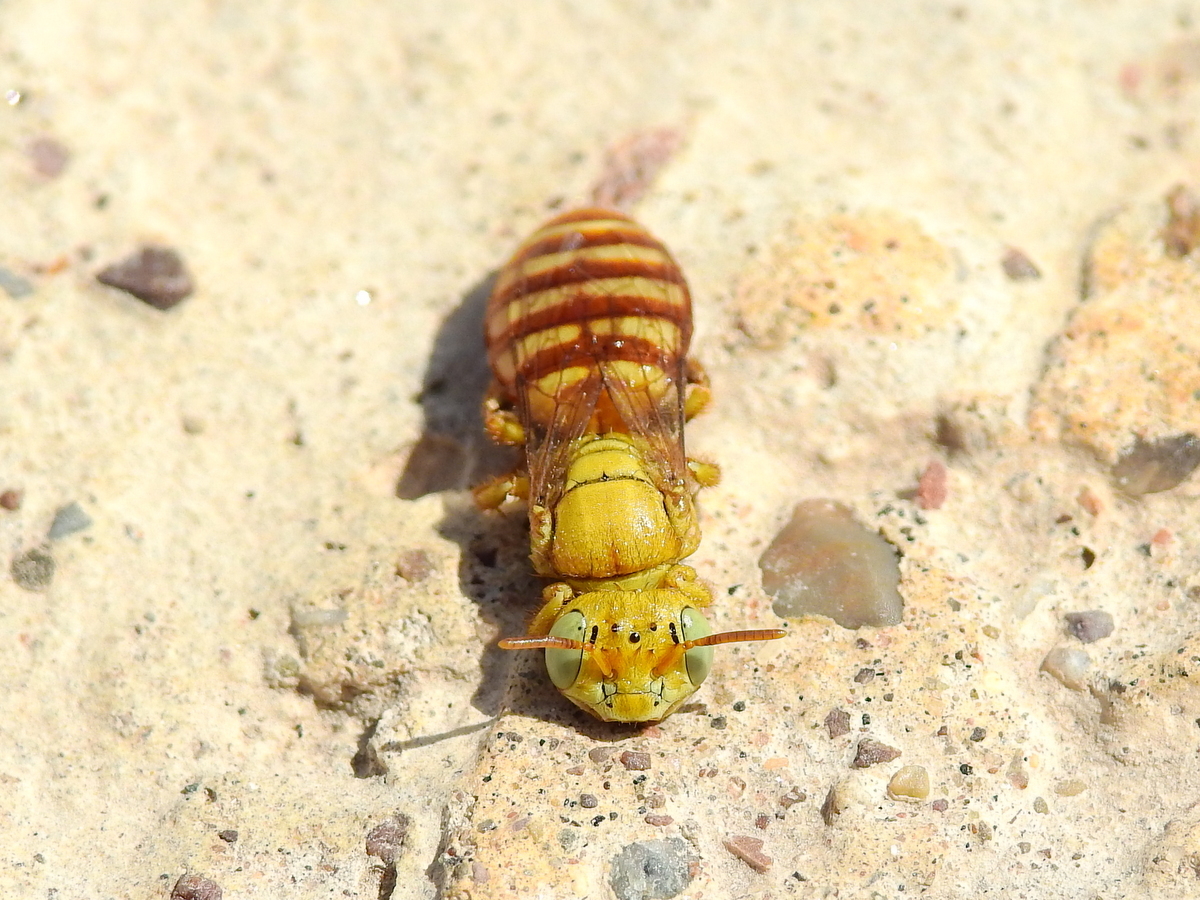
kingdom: Animalia
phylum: Arthropoda
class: Insecta
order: Hymenoptera
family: Andrenidae
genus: Arhysosage
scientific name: Arhysosage ochracea
